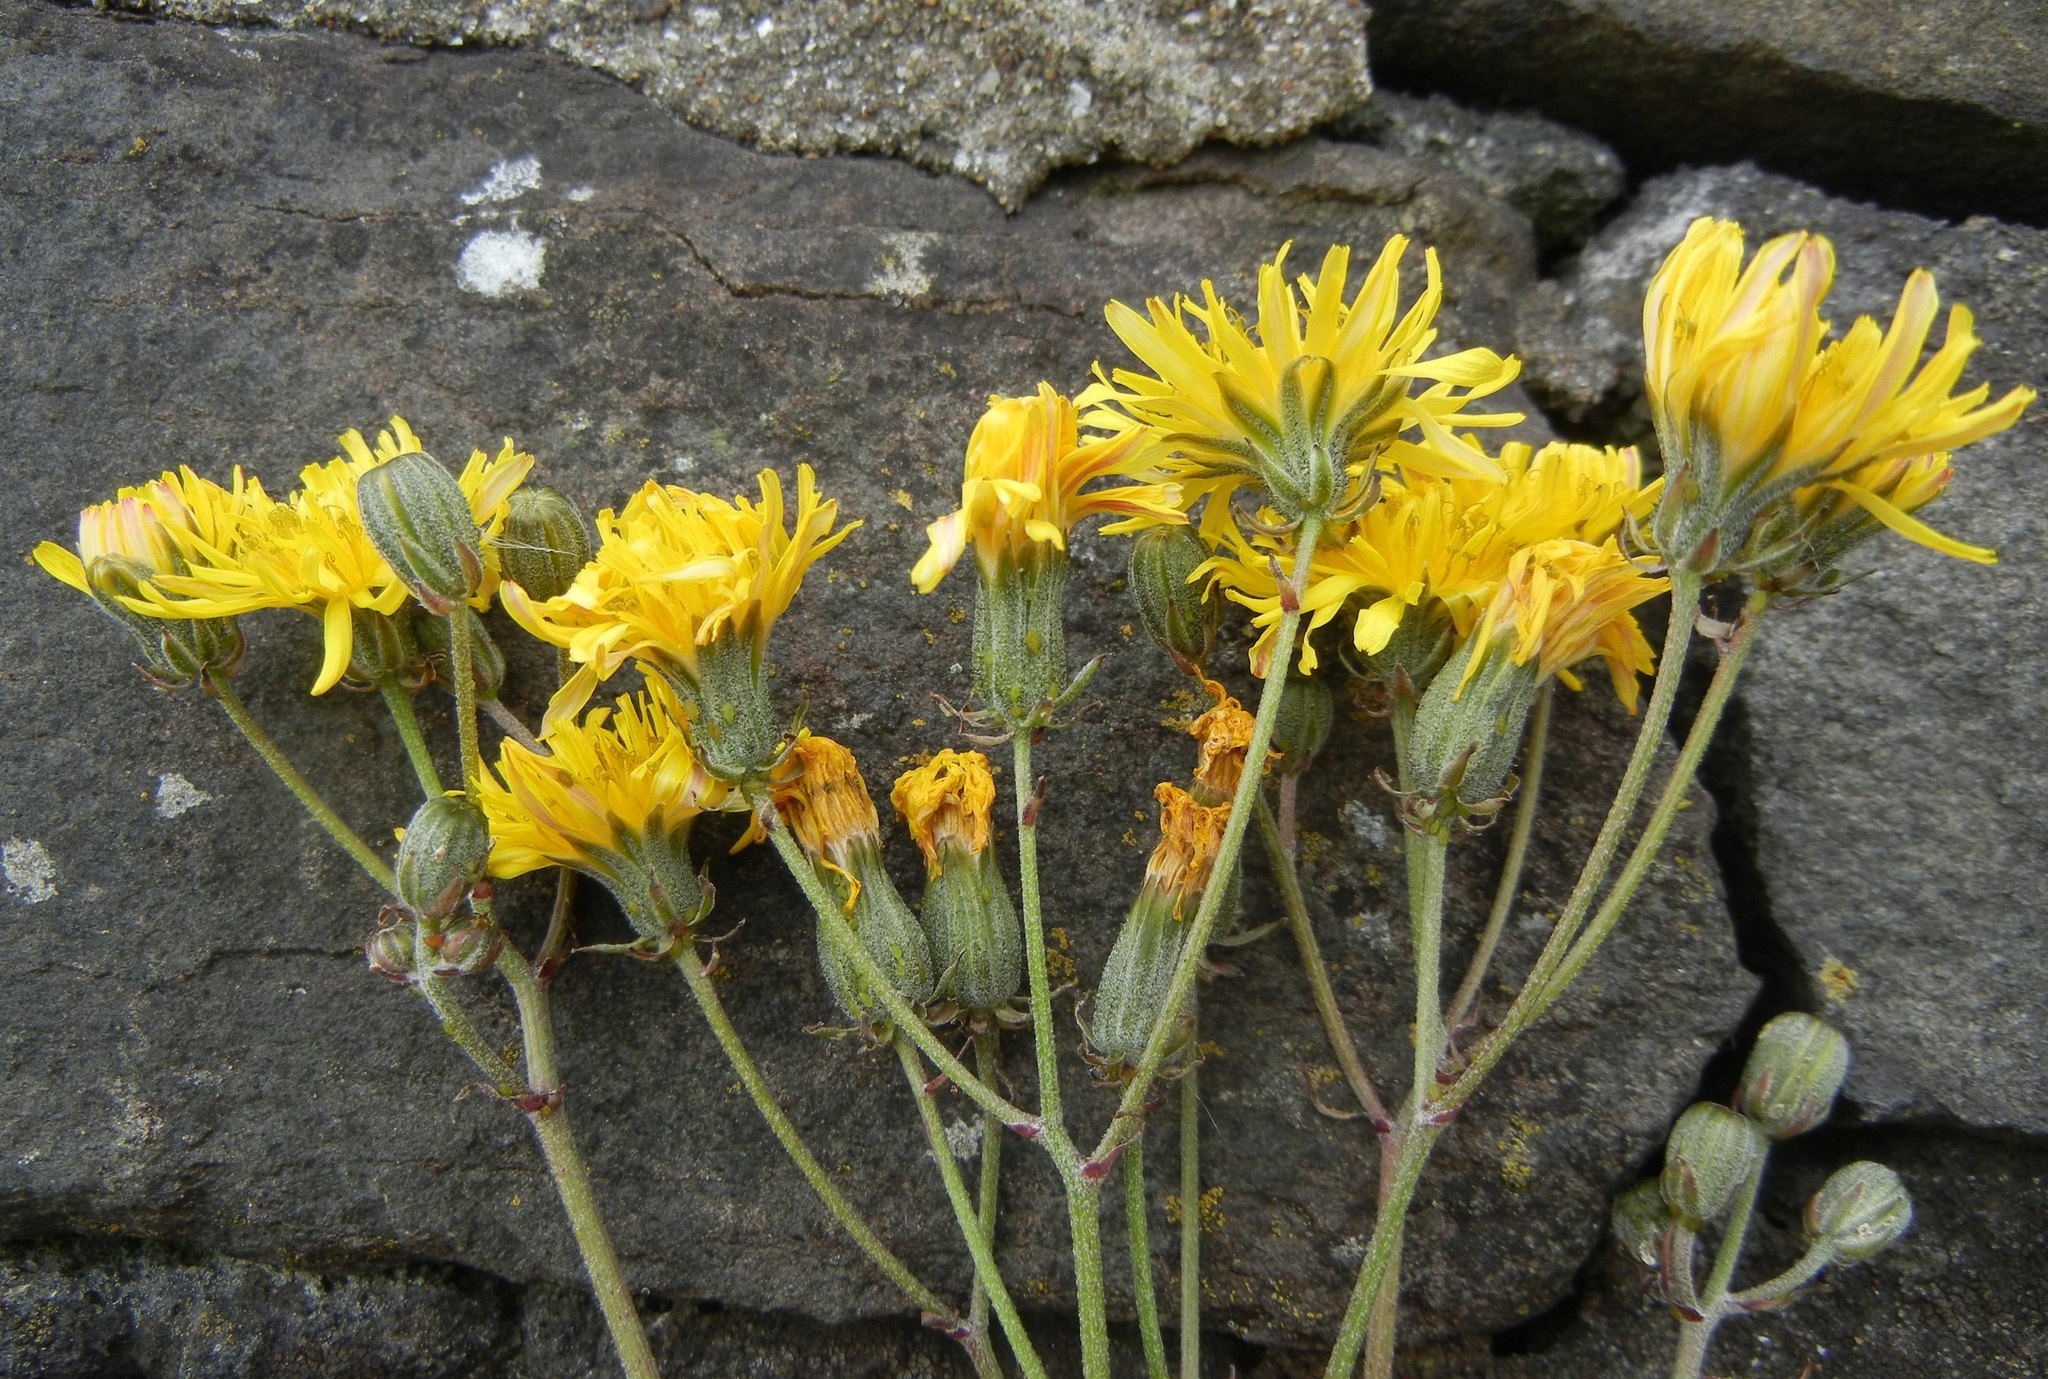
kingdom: Plantae
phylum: Tracheophyta
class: Magnoliopsida
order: Asterales
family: Asteraceae
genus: Crepis
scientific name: Crepis vesicaria
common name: Beaked hawksbeard
